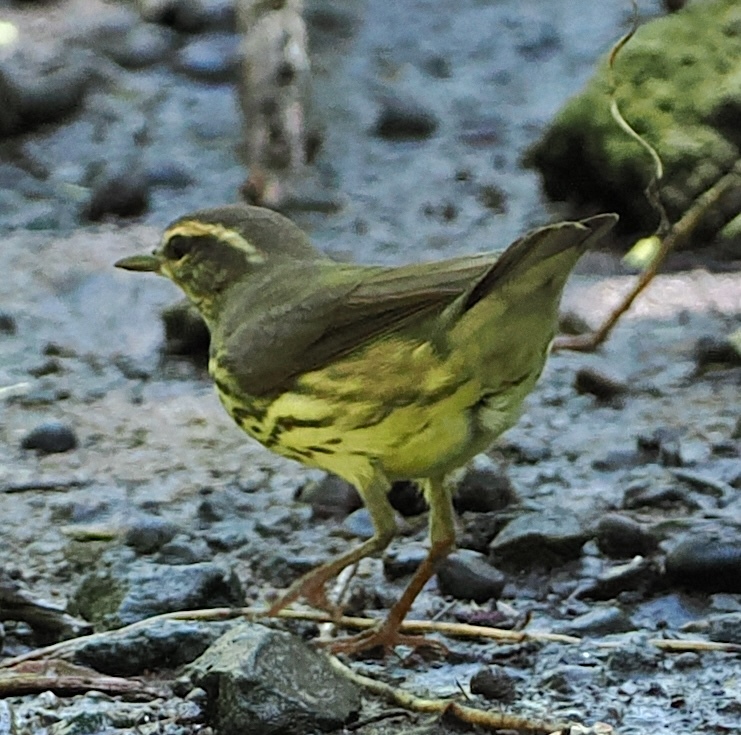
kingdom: Animalia
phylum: Chordata
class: Aves
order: Passeriformes
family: Parulidae
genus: Parkesia
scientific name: Parkesia noveboracensis
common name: Northern waterthrush
